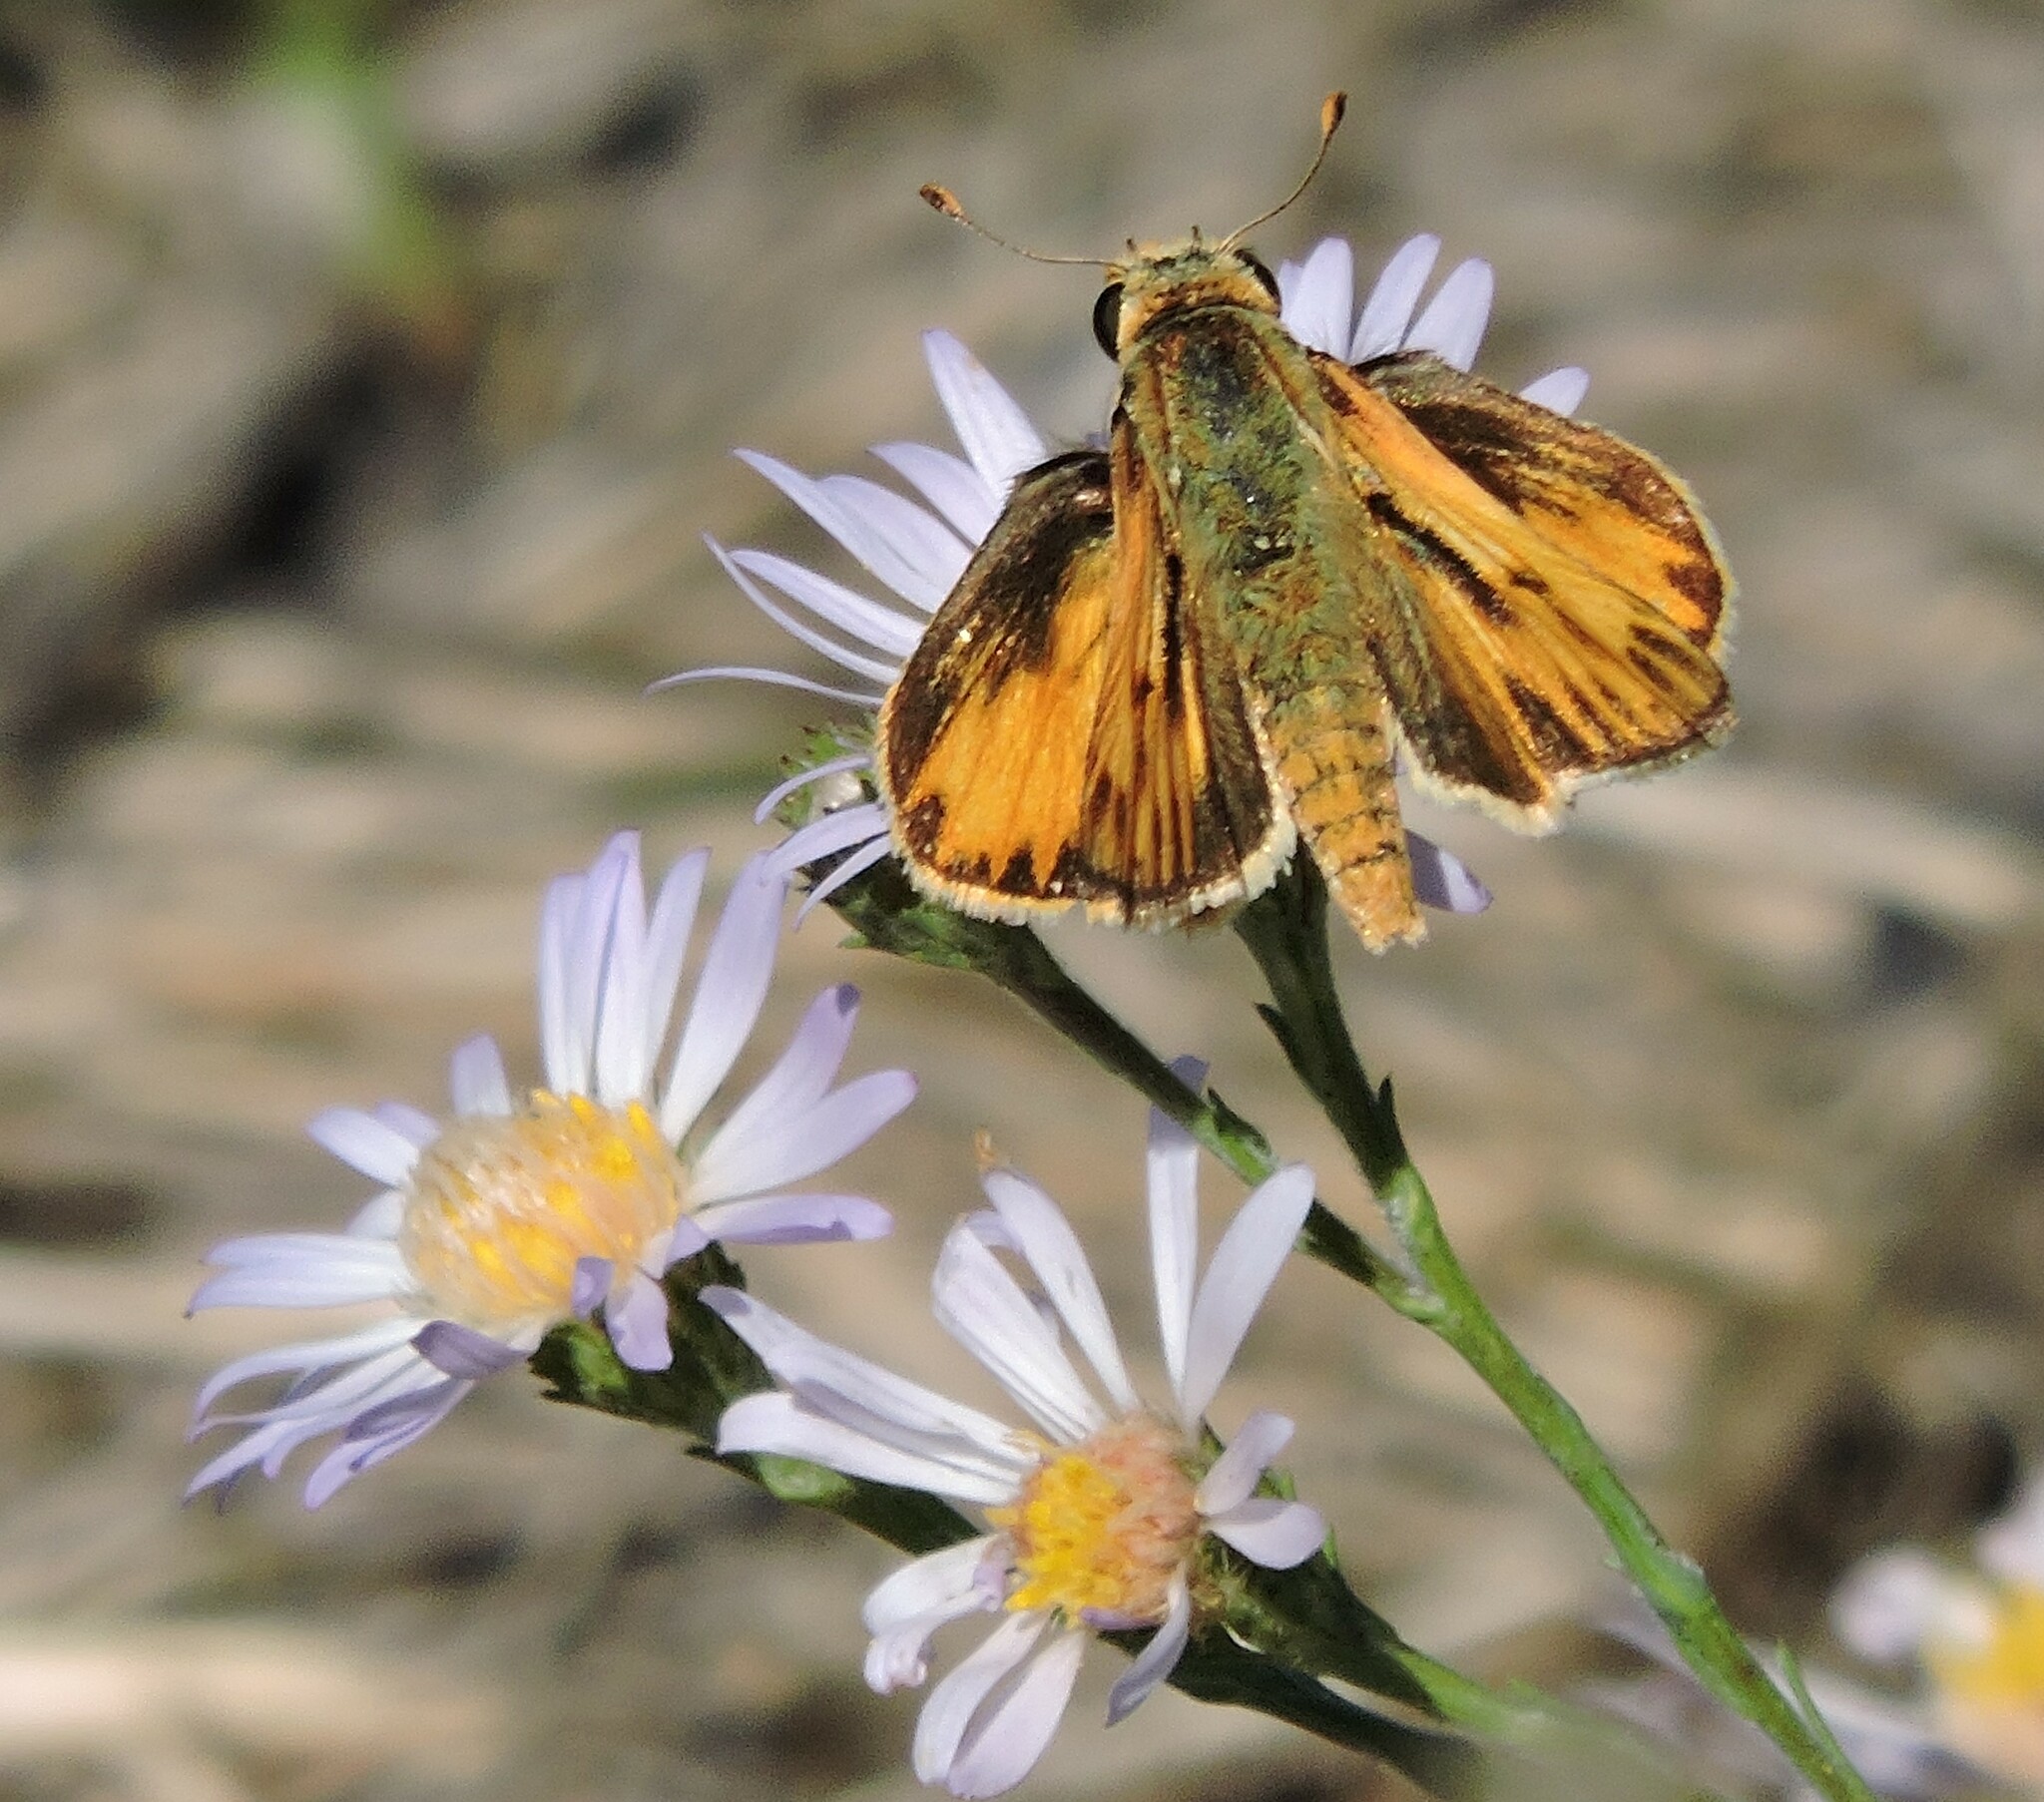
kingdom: Animalia
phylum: Arthropoda
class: Insecta
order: Lepidoptera
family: Hesperiidae
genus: Hylephila
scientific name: Hylephila phyleus
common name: Fiery skipper
